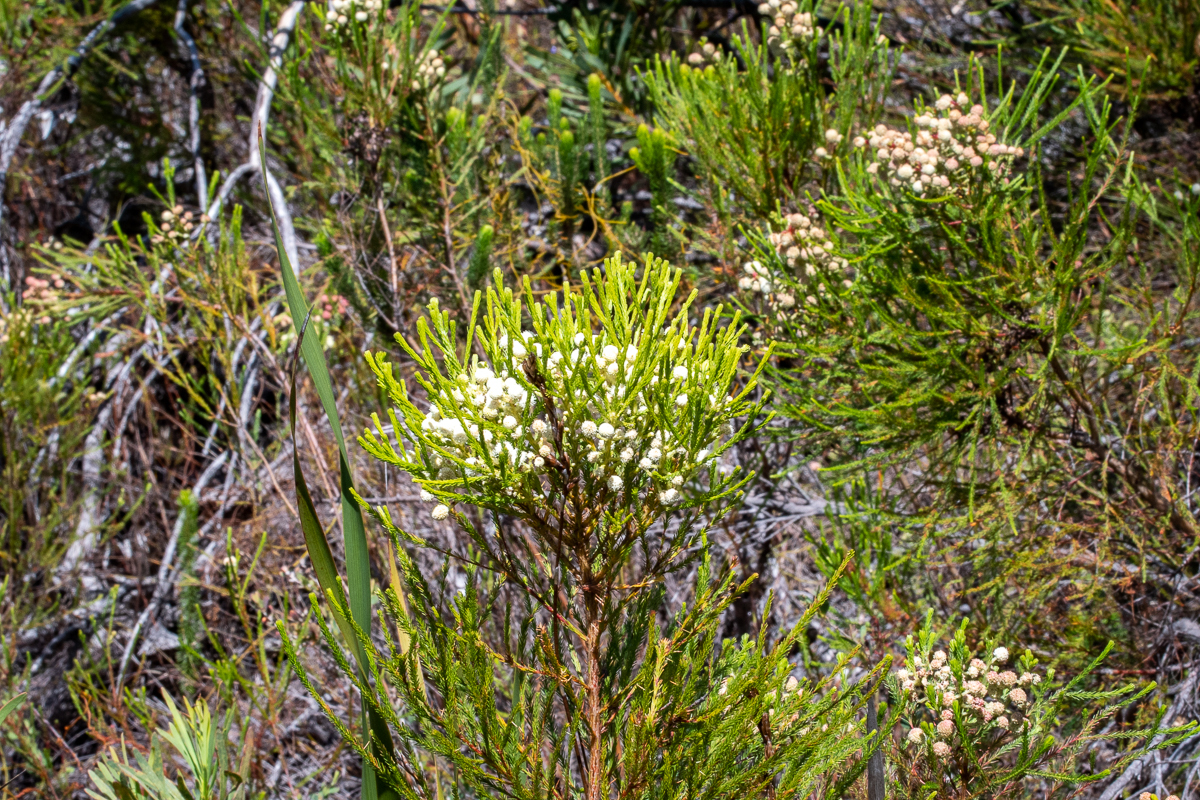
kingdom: Plantae
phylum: Tracheophyta
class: Magnoliopsida
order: Bruniales
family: Bruniaceae
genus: Berzelia
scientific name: Berzelia lanuginosa
